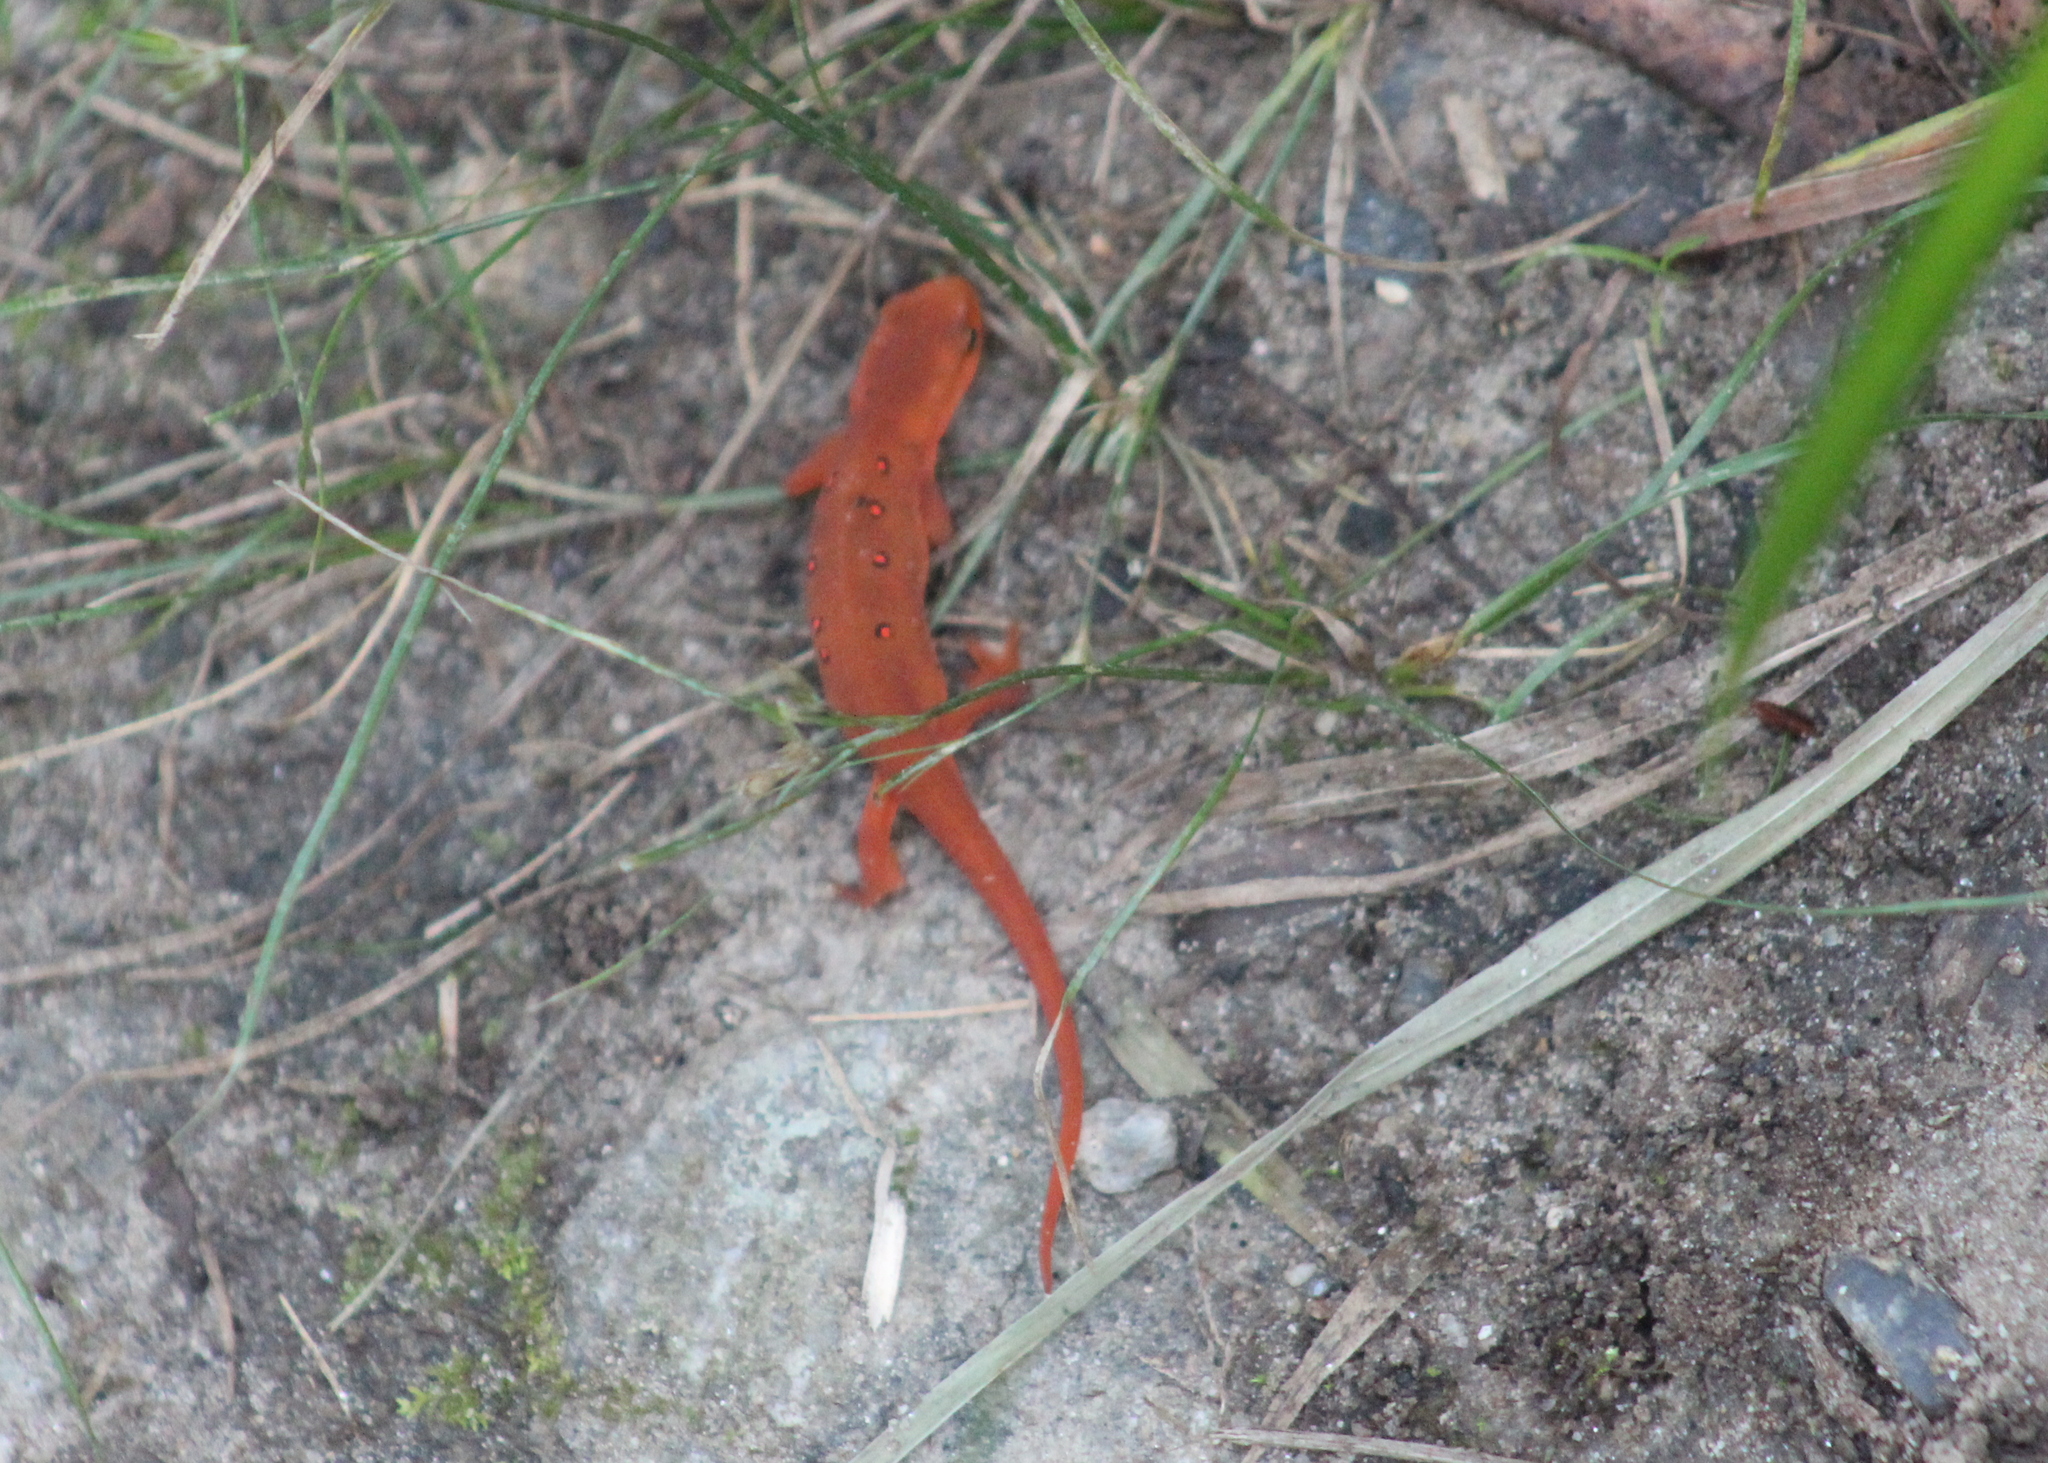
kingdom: Animalia
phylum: Chordata
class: Amphibia
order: Caudata
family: Salamandridae
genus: Notophthalmus
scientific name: Notophthalmus viridescens
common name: Eastern newt
